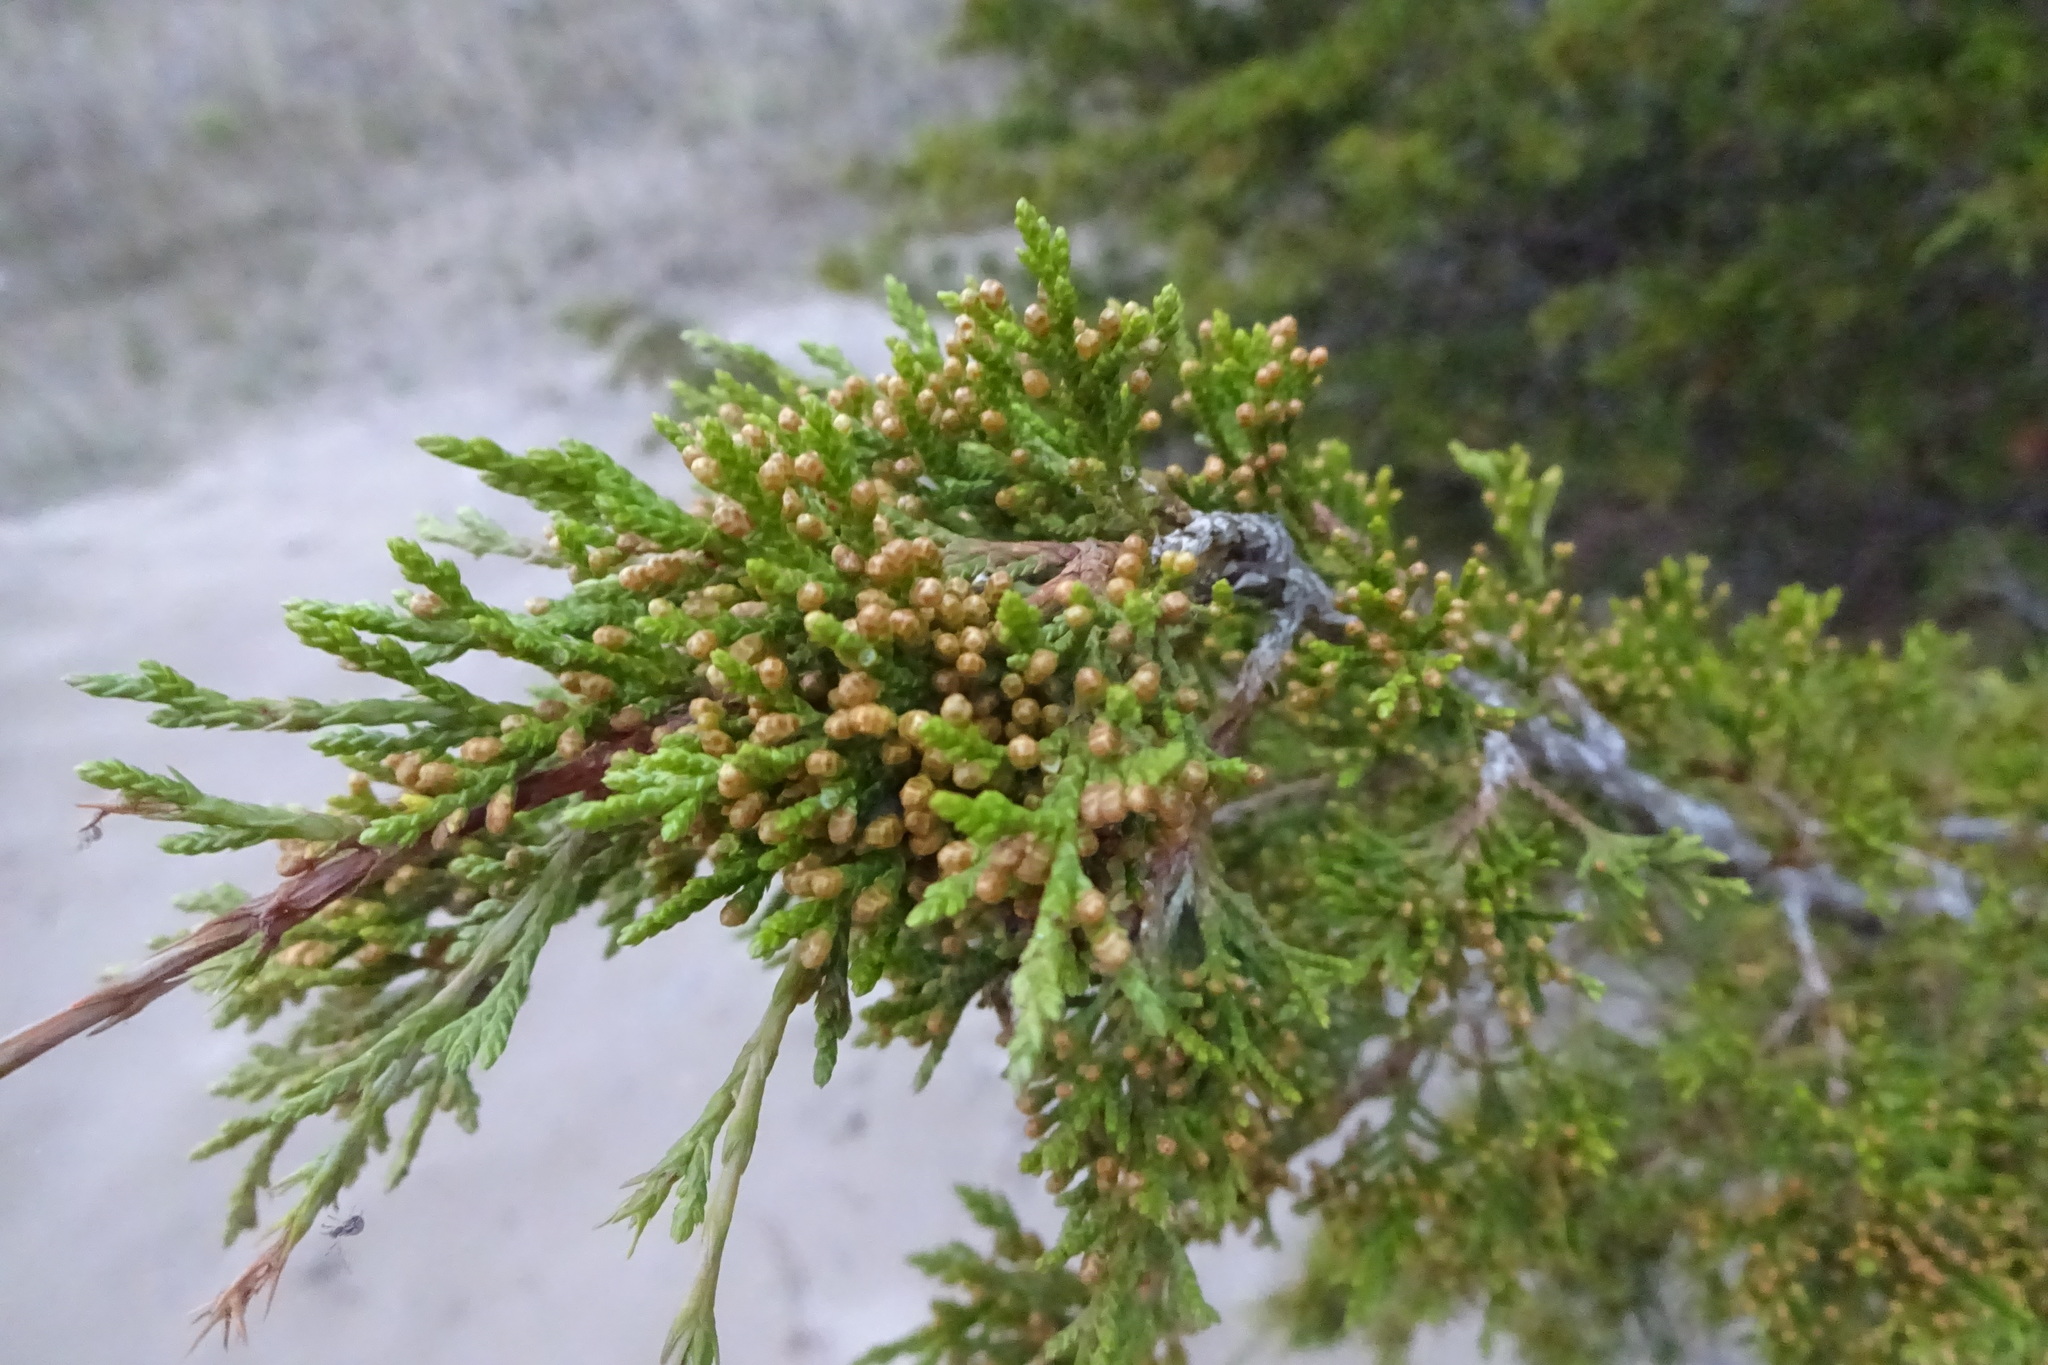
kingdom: Plantae
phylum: Tracheophyta
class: Pinopsida
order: Pinales
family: Cupressaceae
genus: Juniperus
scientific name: Juniperus virginiana
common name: Red juniper
